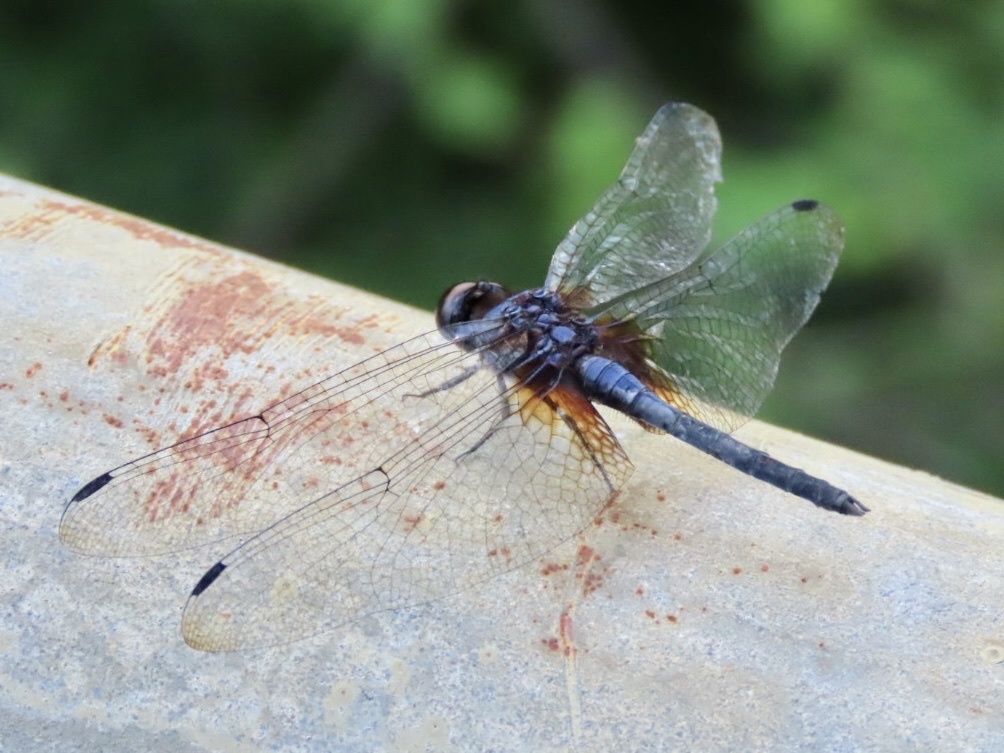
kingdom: Animalia
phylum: Arthropoda
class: Insecta
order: Odonata
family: Libellulidae
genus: Trithemis
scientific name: Trithemis festiva
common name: Indigo dropwing
